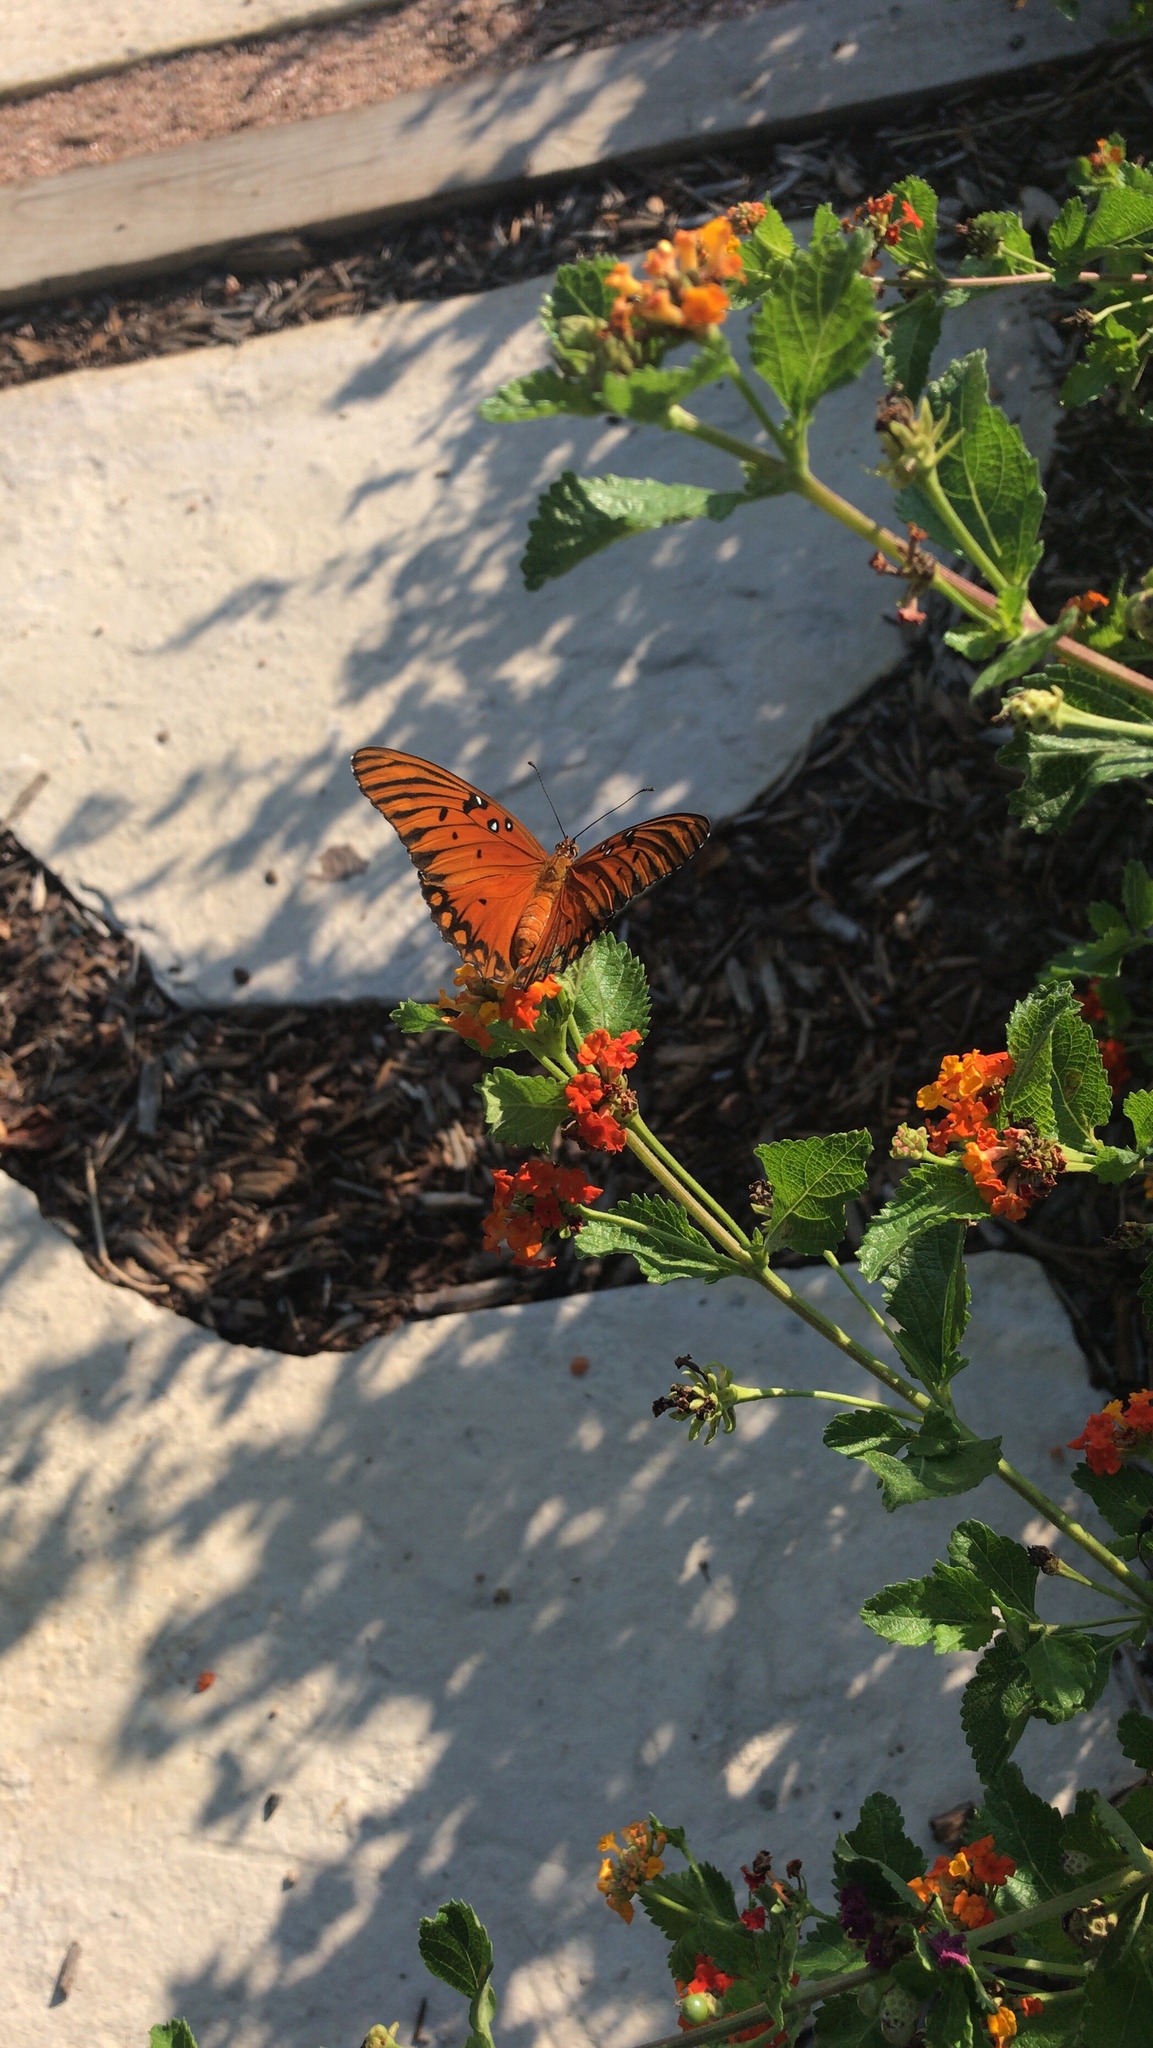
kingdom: Animalia
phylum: Arthropoda
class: Insecta
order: Lepidoptera
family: Nymphalidae
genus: Dione
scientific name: Dione vanillae
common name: Gulf fritillary
